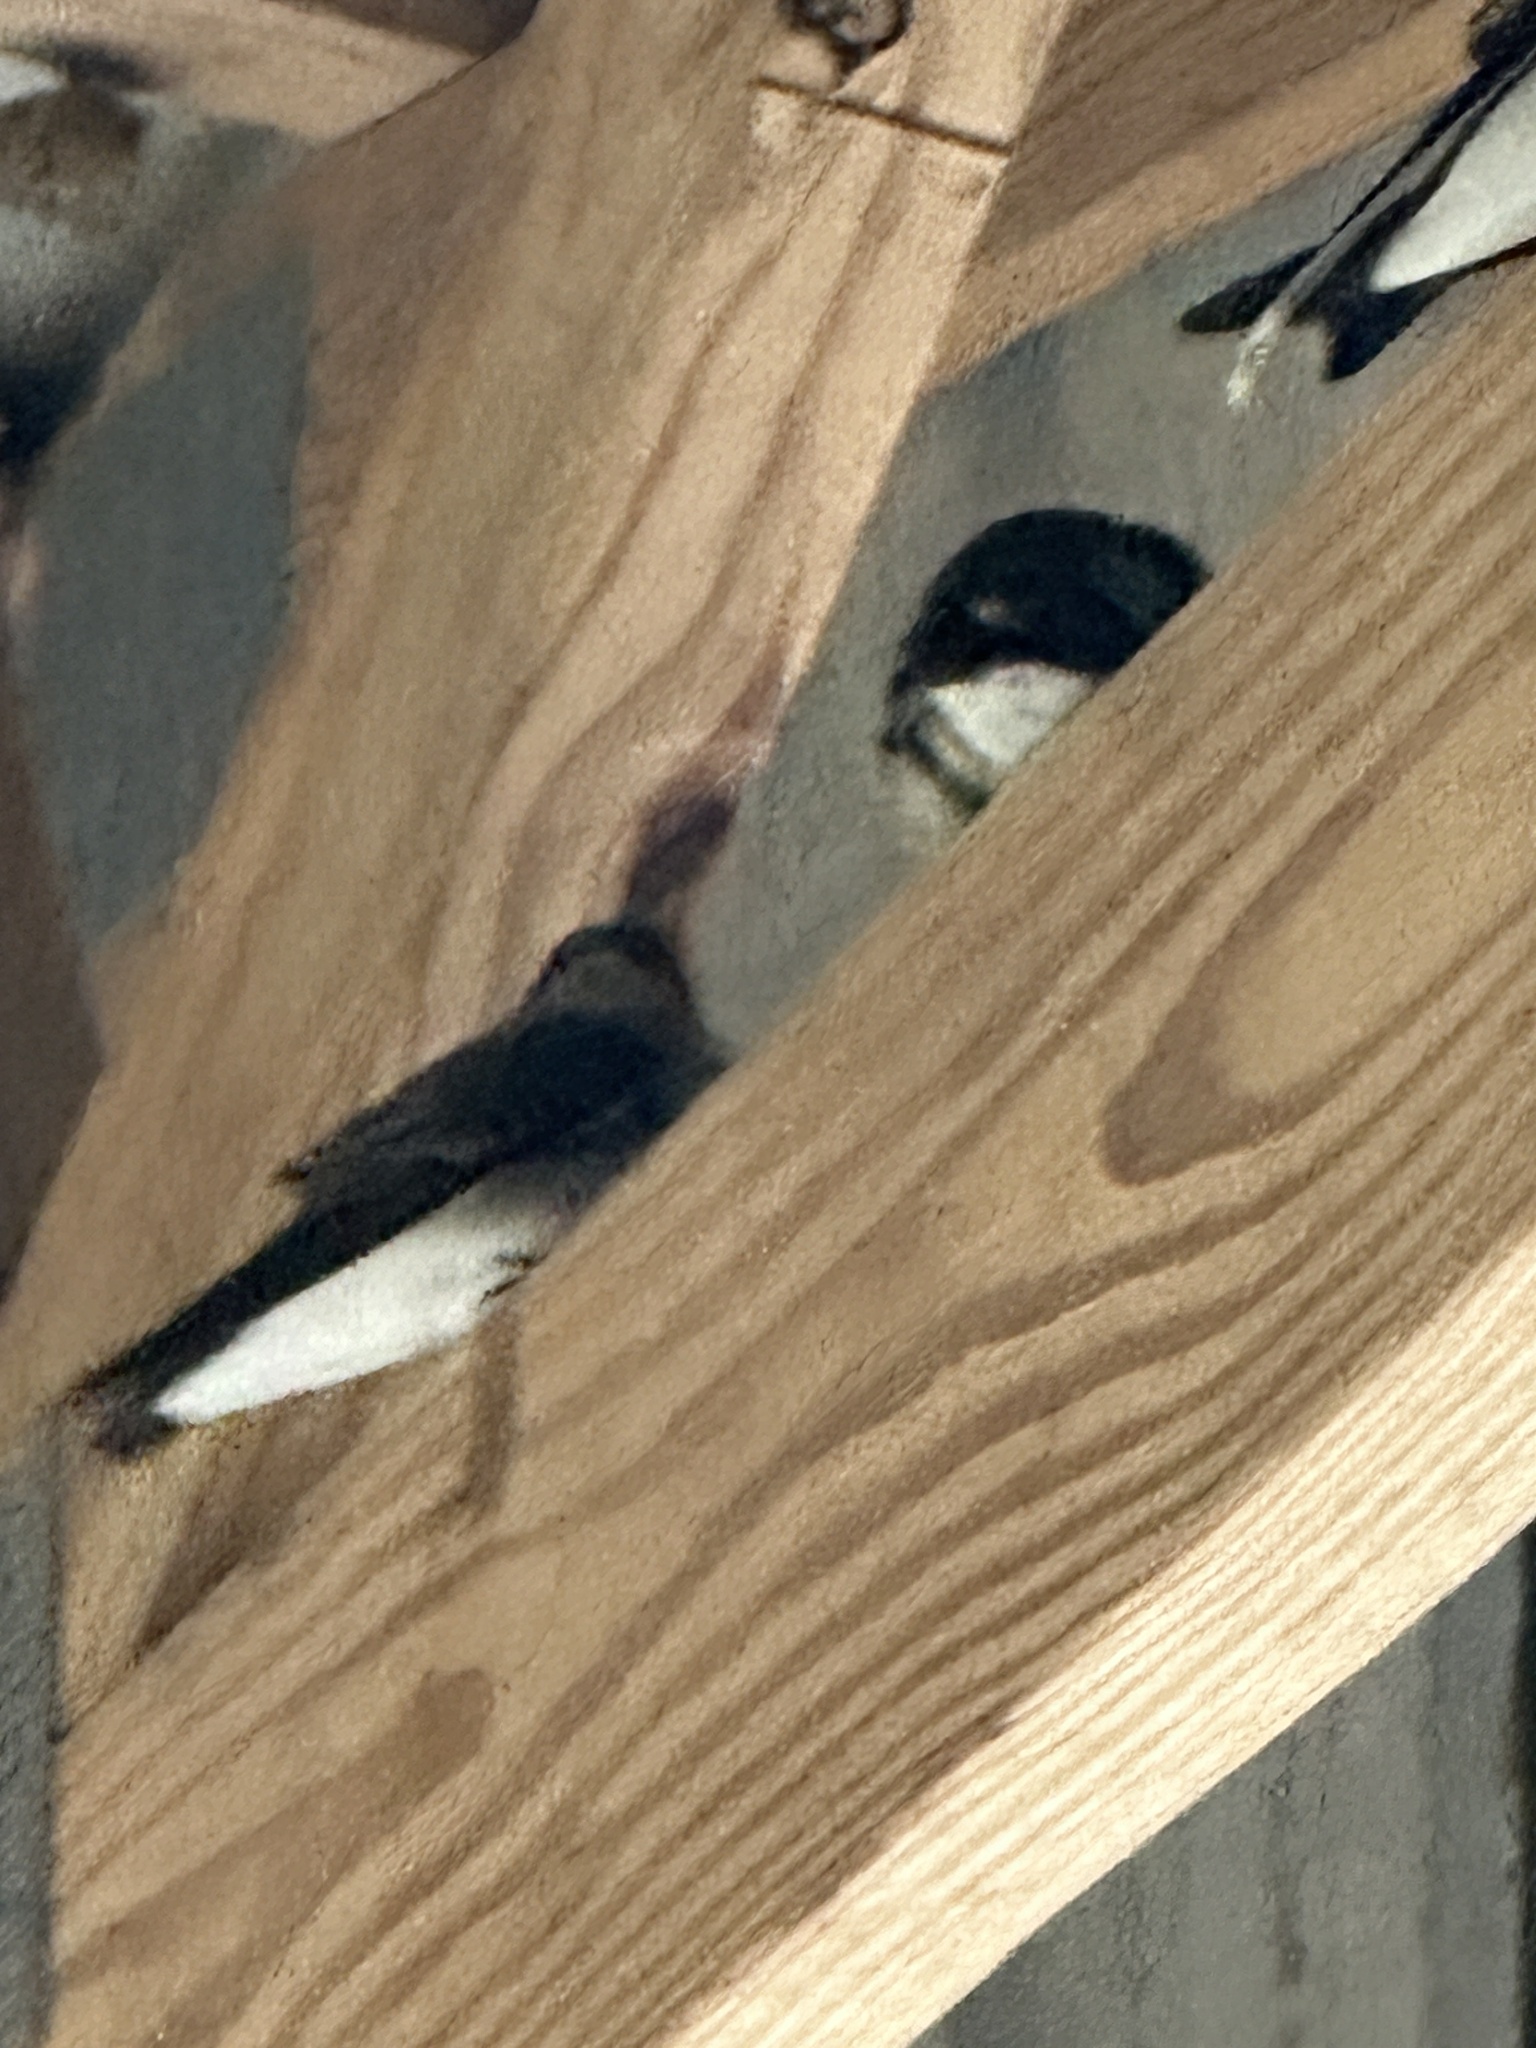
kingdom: Animalia
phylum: Chordata
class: Aves
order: Passeriformes
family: Hirundinidae
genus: Hirundo
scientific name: Hirundo rustica
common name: Barn swallow
